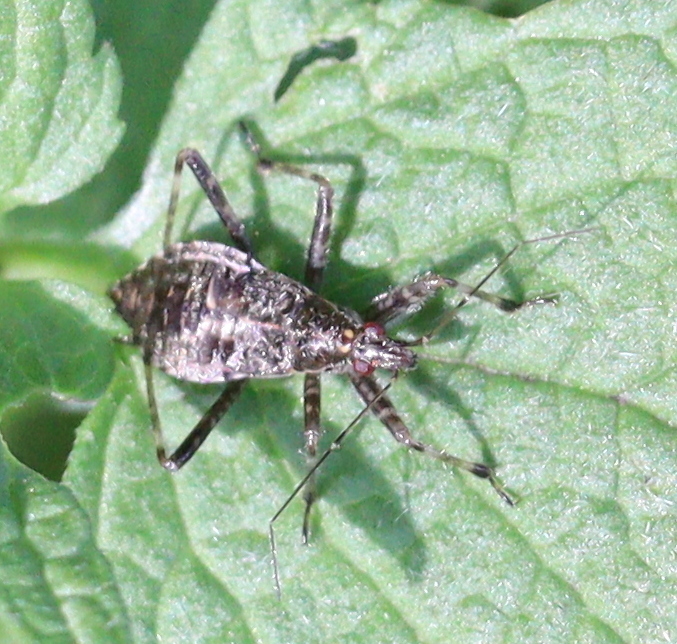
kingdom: Animalia
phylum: Arthropoda
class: Insecta
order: Hemiptera
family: Nabidae
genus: Himacerus
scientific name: Himacerus apterus
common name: Tree damsel bug
